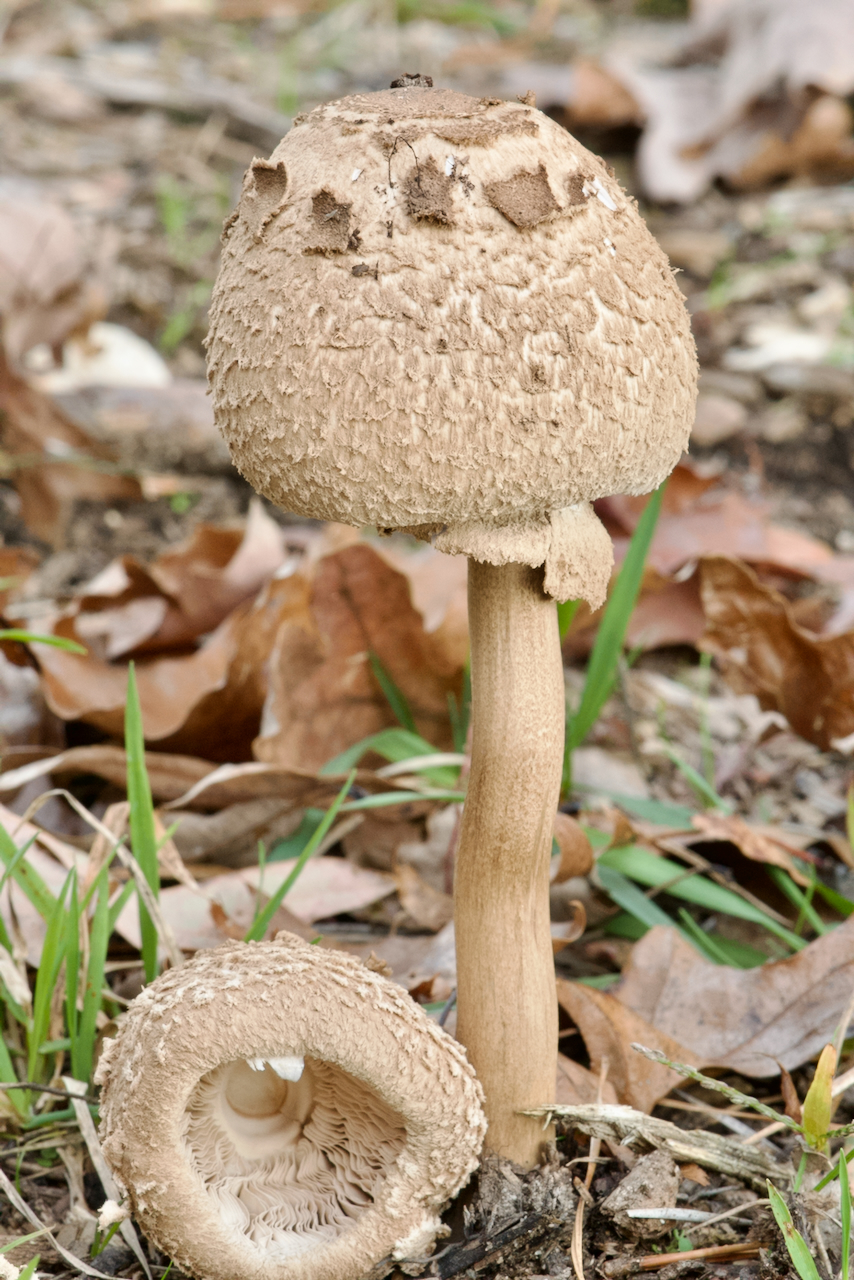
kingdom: Fungi
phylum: Basidiomycota
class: Agaricomycetes
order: Agaricales
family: Agaricaceae
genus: Macrolepiota
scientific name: Macrolepiota procera
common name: Parasol
